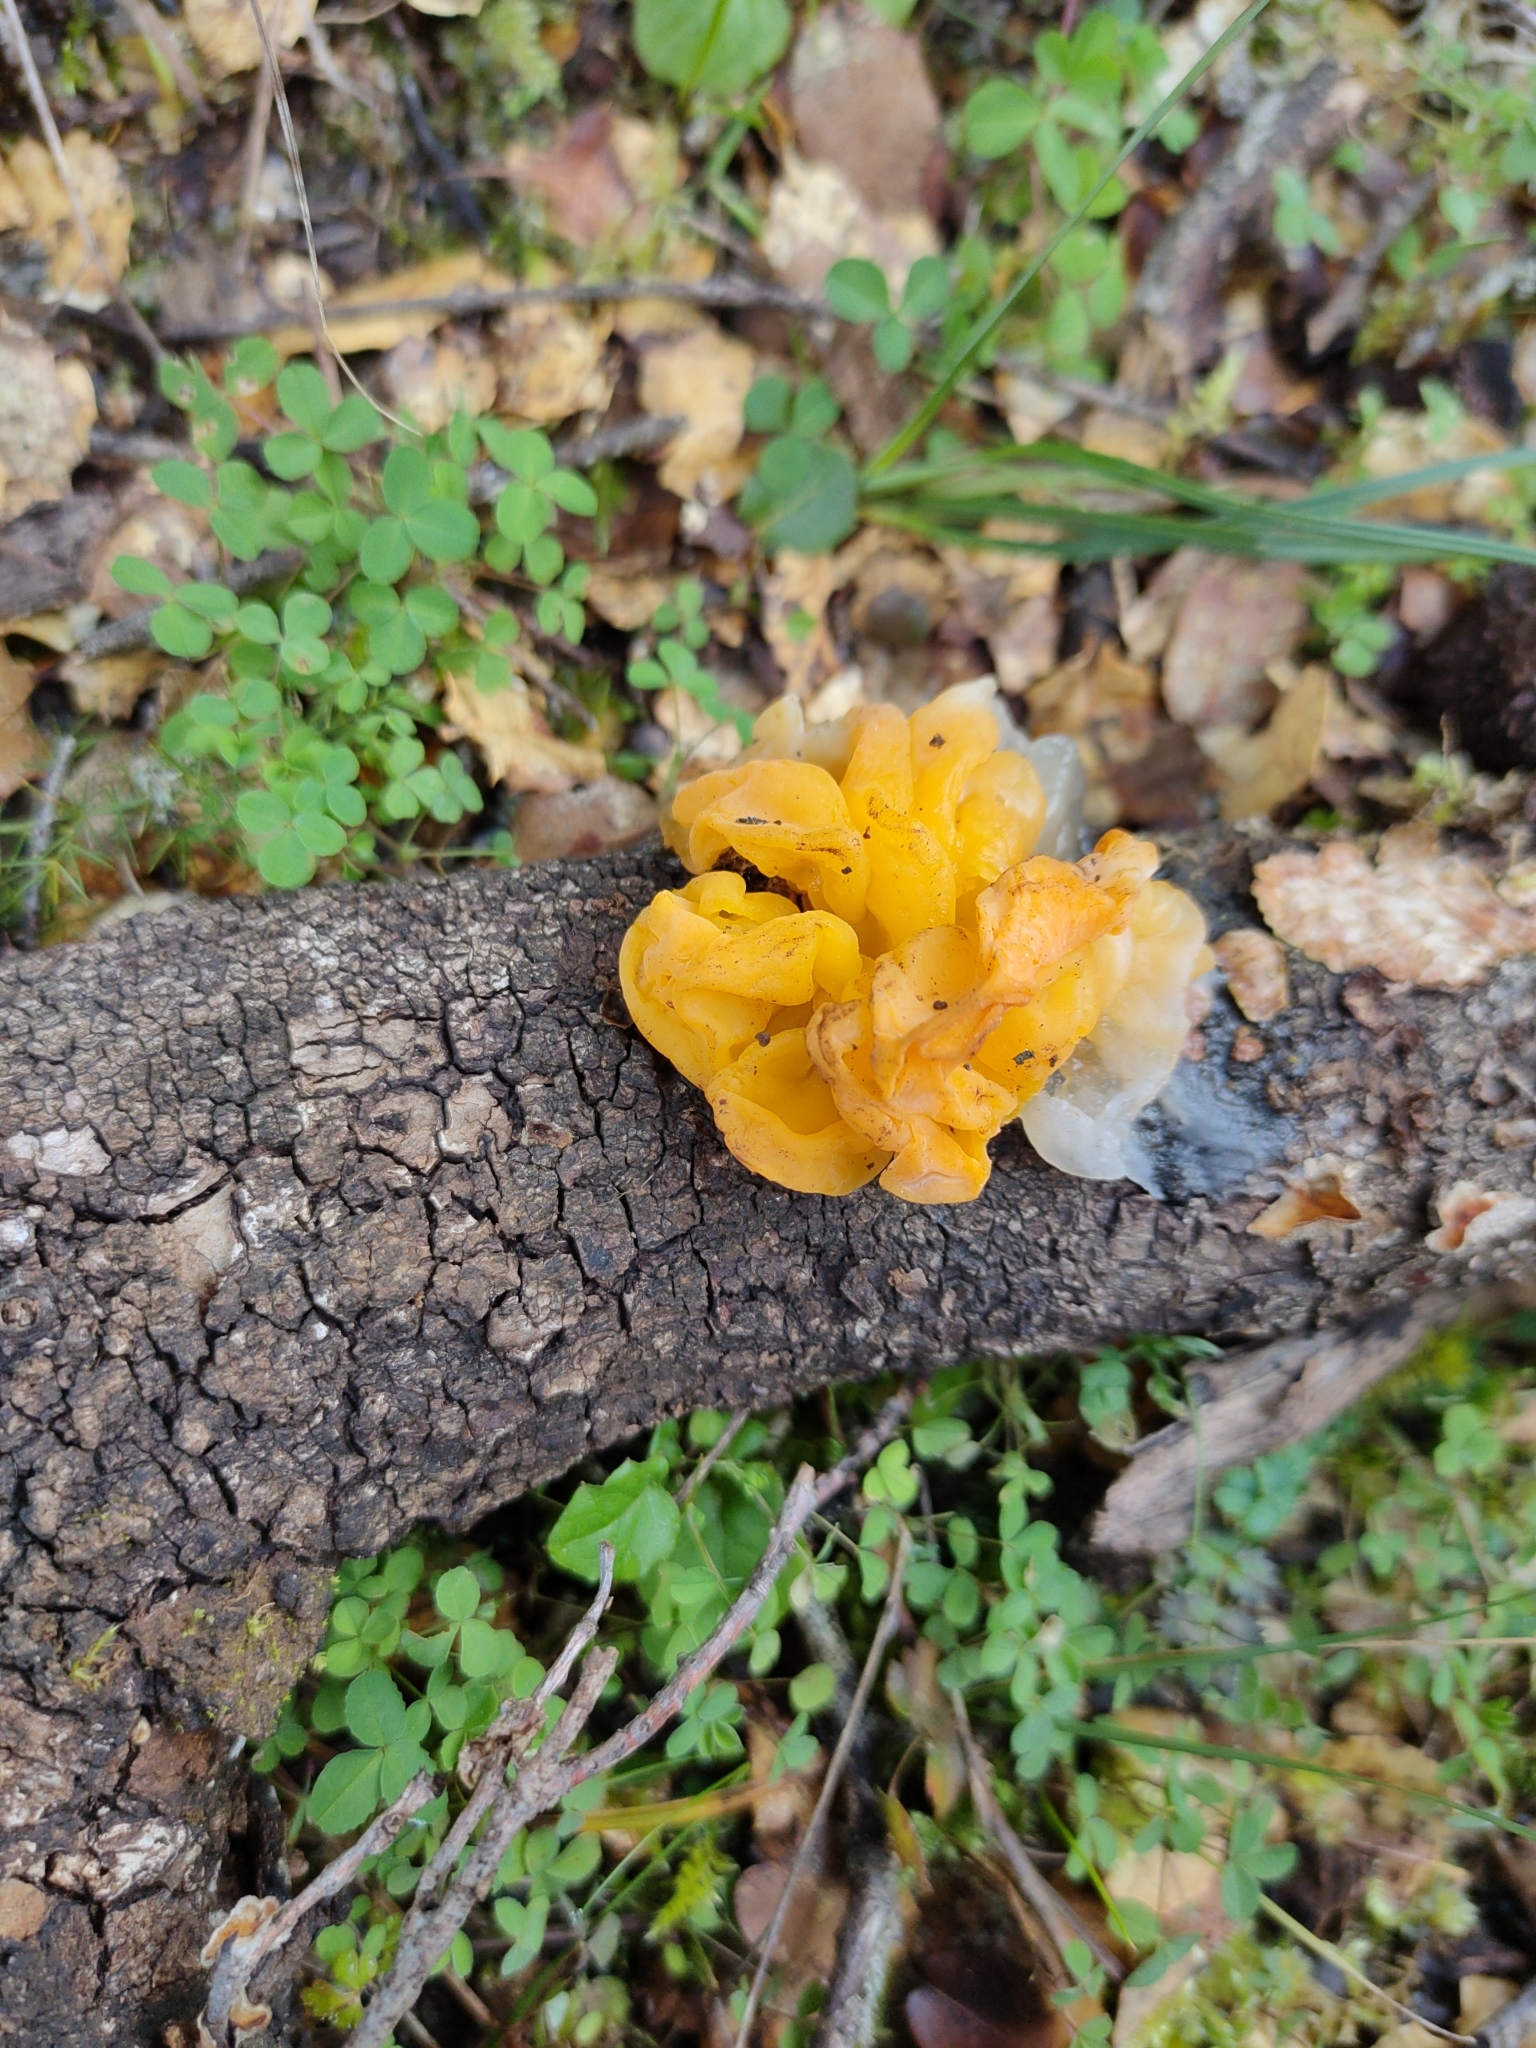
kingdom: Fungi
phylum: Basidiomycota
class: Tremellomycetes
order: Tremellales
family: Tremellaceae
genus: Tremella
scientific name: Tremella mesenterica
